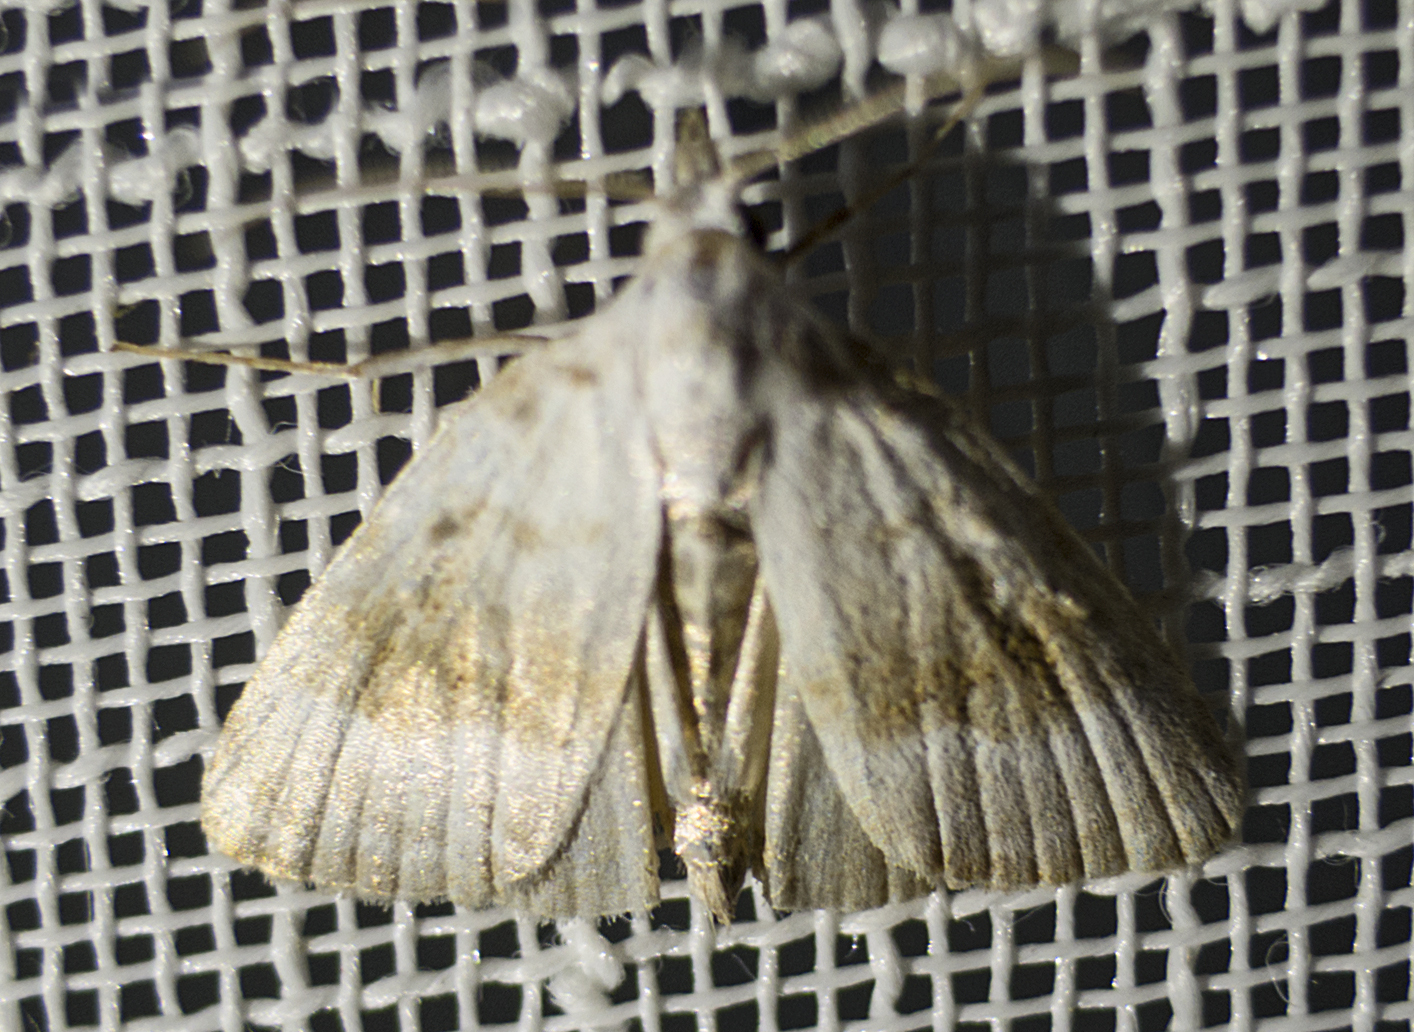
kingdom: Animalia
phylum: Arthropoda
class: Insecta
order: Lepidoptera
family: Nolidae
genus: Meganola
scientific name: Meganola albula
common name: Kent black arches
